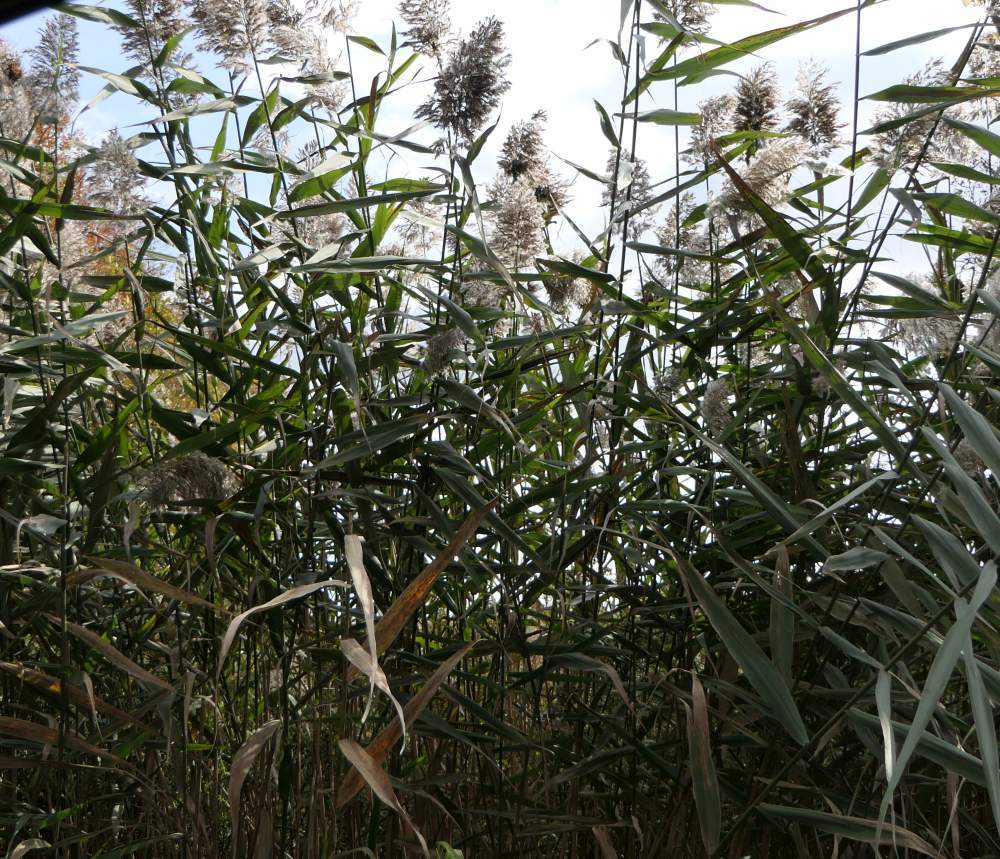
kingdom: Plantae
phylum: Tracheophyta
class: Liliopsida
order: Poales
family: Poaceae
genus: Phragmites
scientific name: Phragmites australis
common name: Common reed
